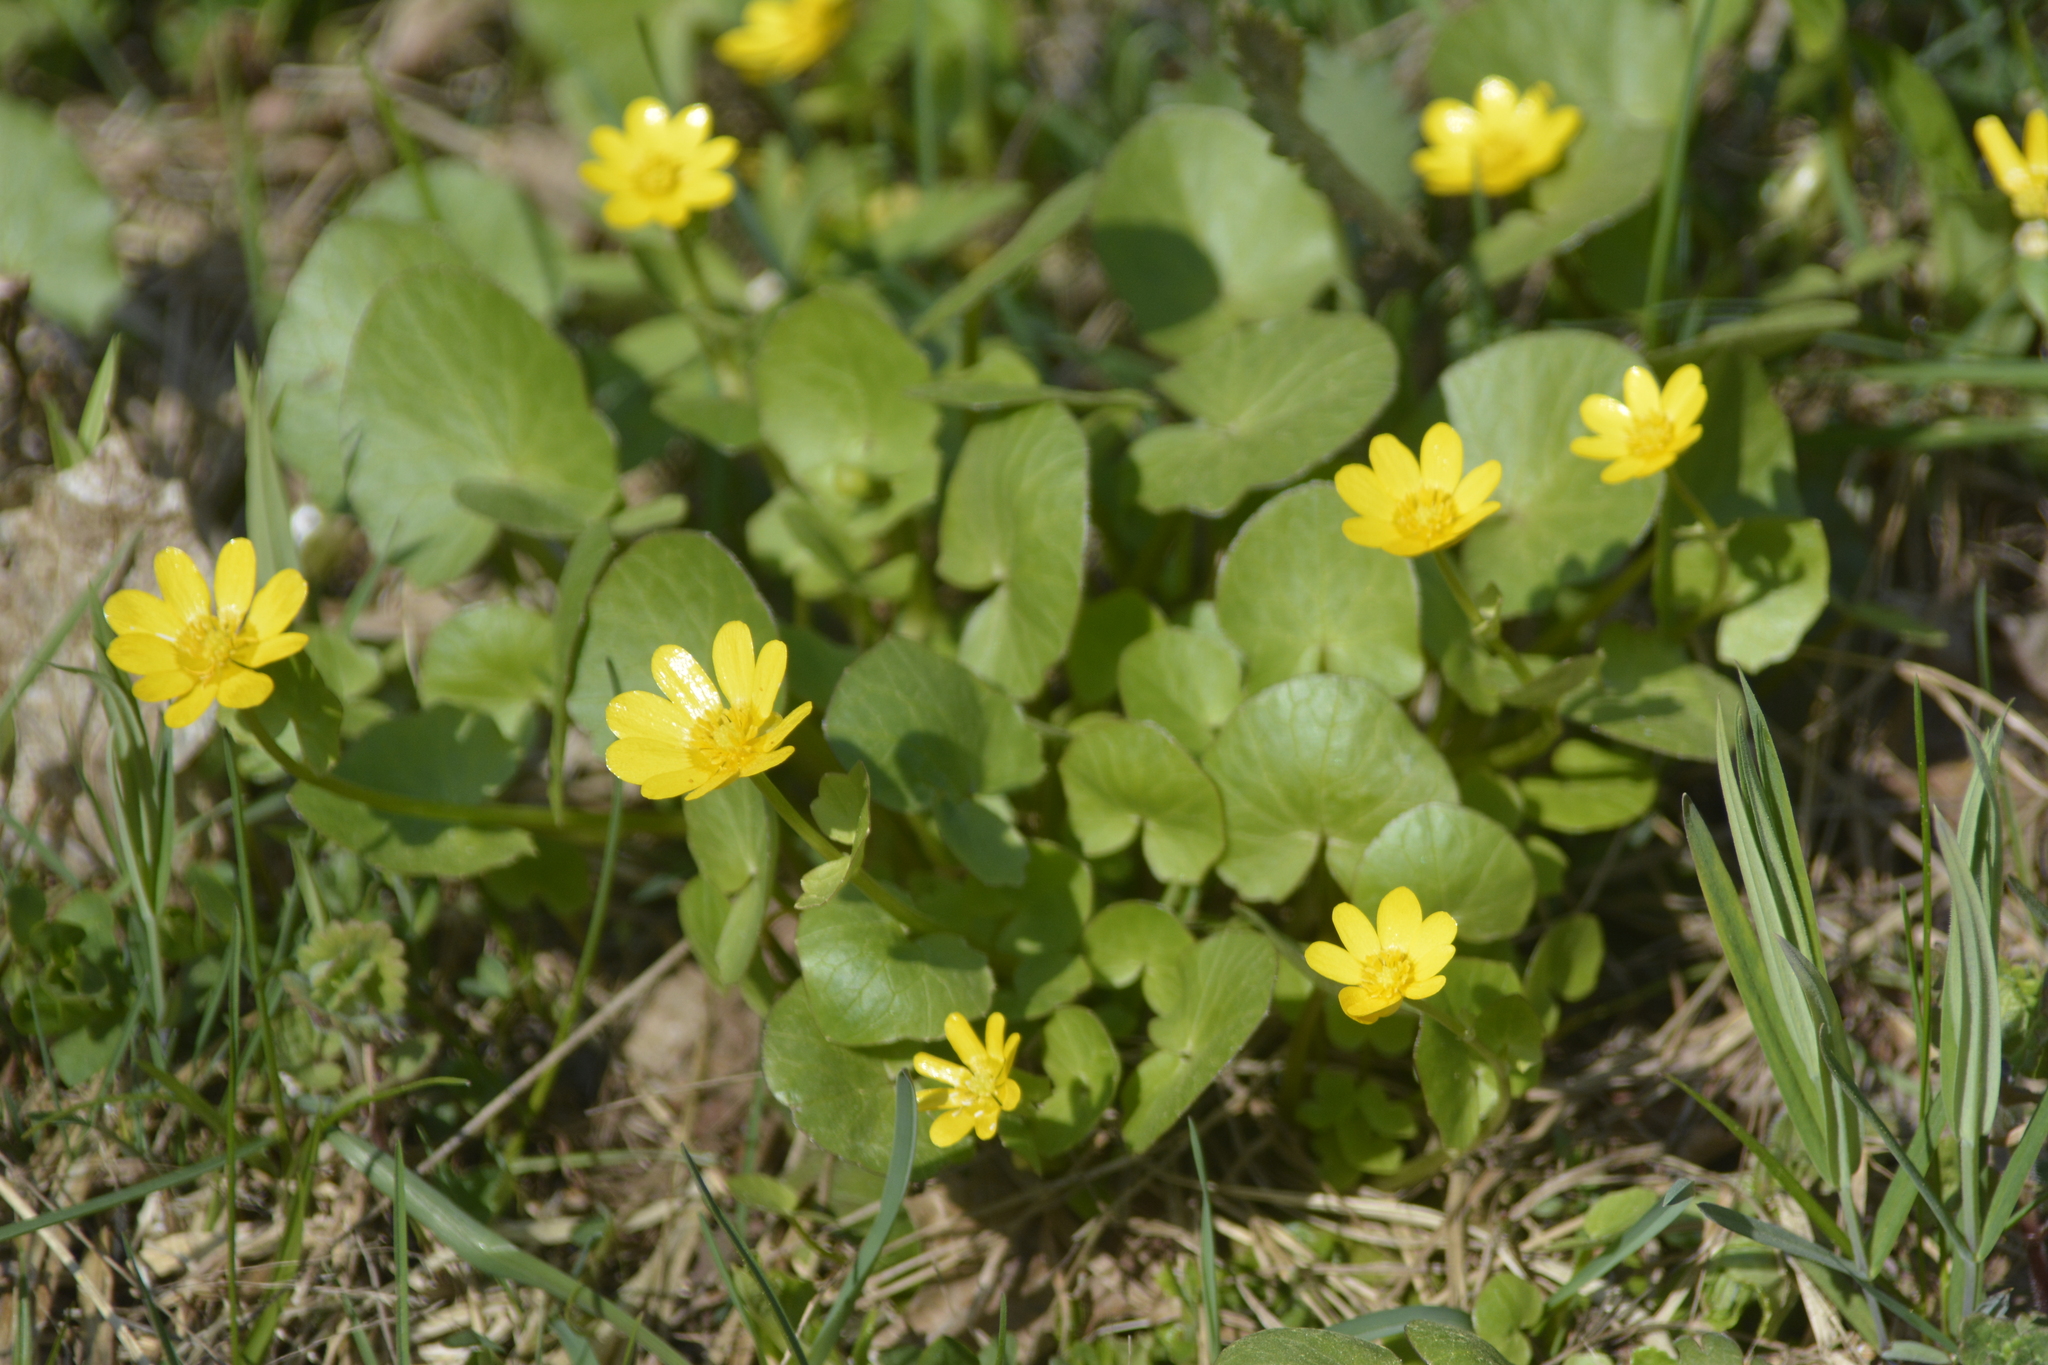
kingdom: Plantae
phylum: Tracheophyta
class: Magnoliopsida
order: Ranunculales
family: Ranunculaceae
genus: Ficaria
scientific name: Ficaria verna
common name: Lesser celandine
